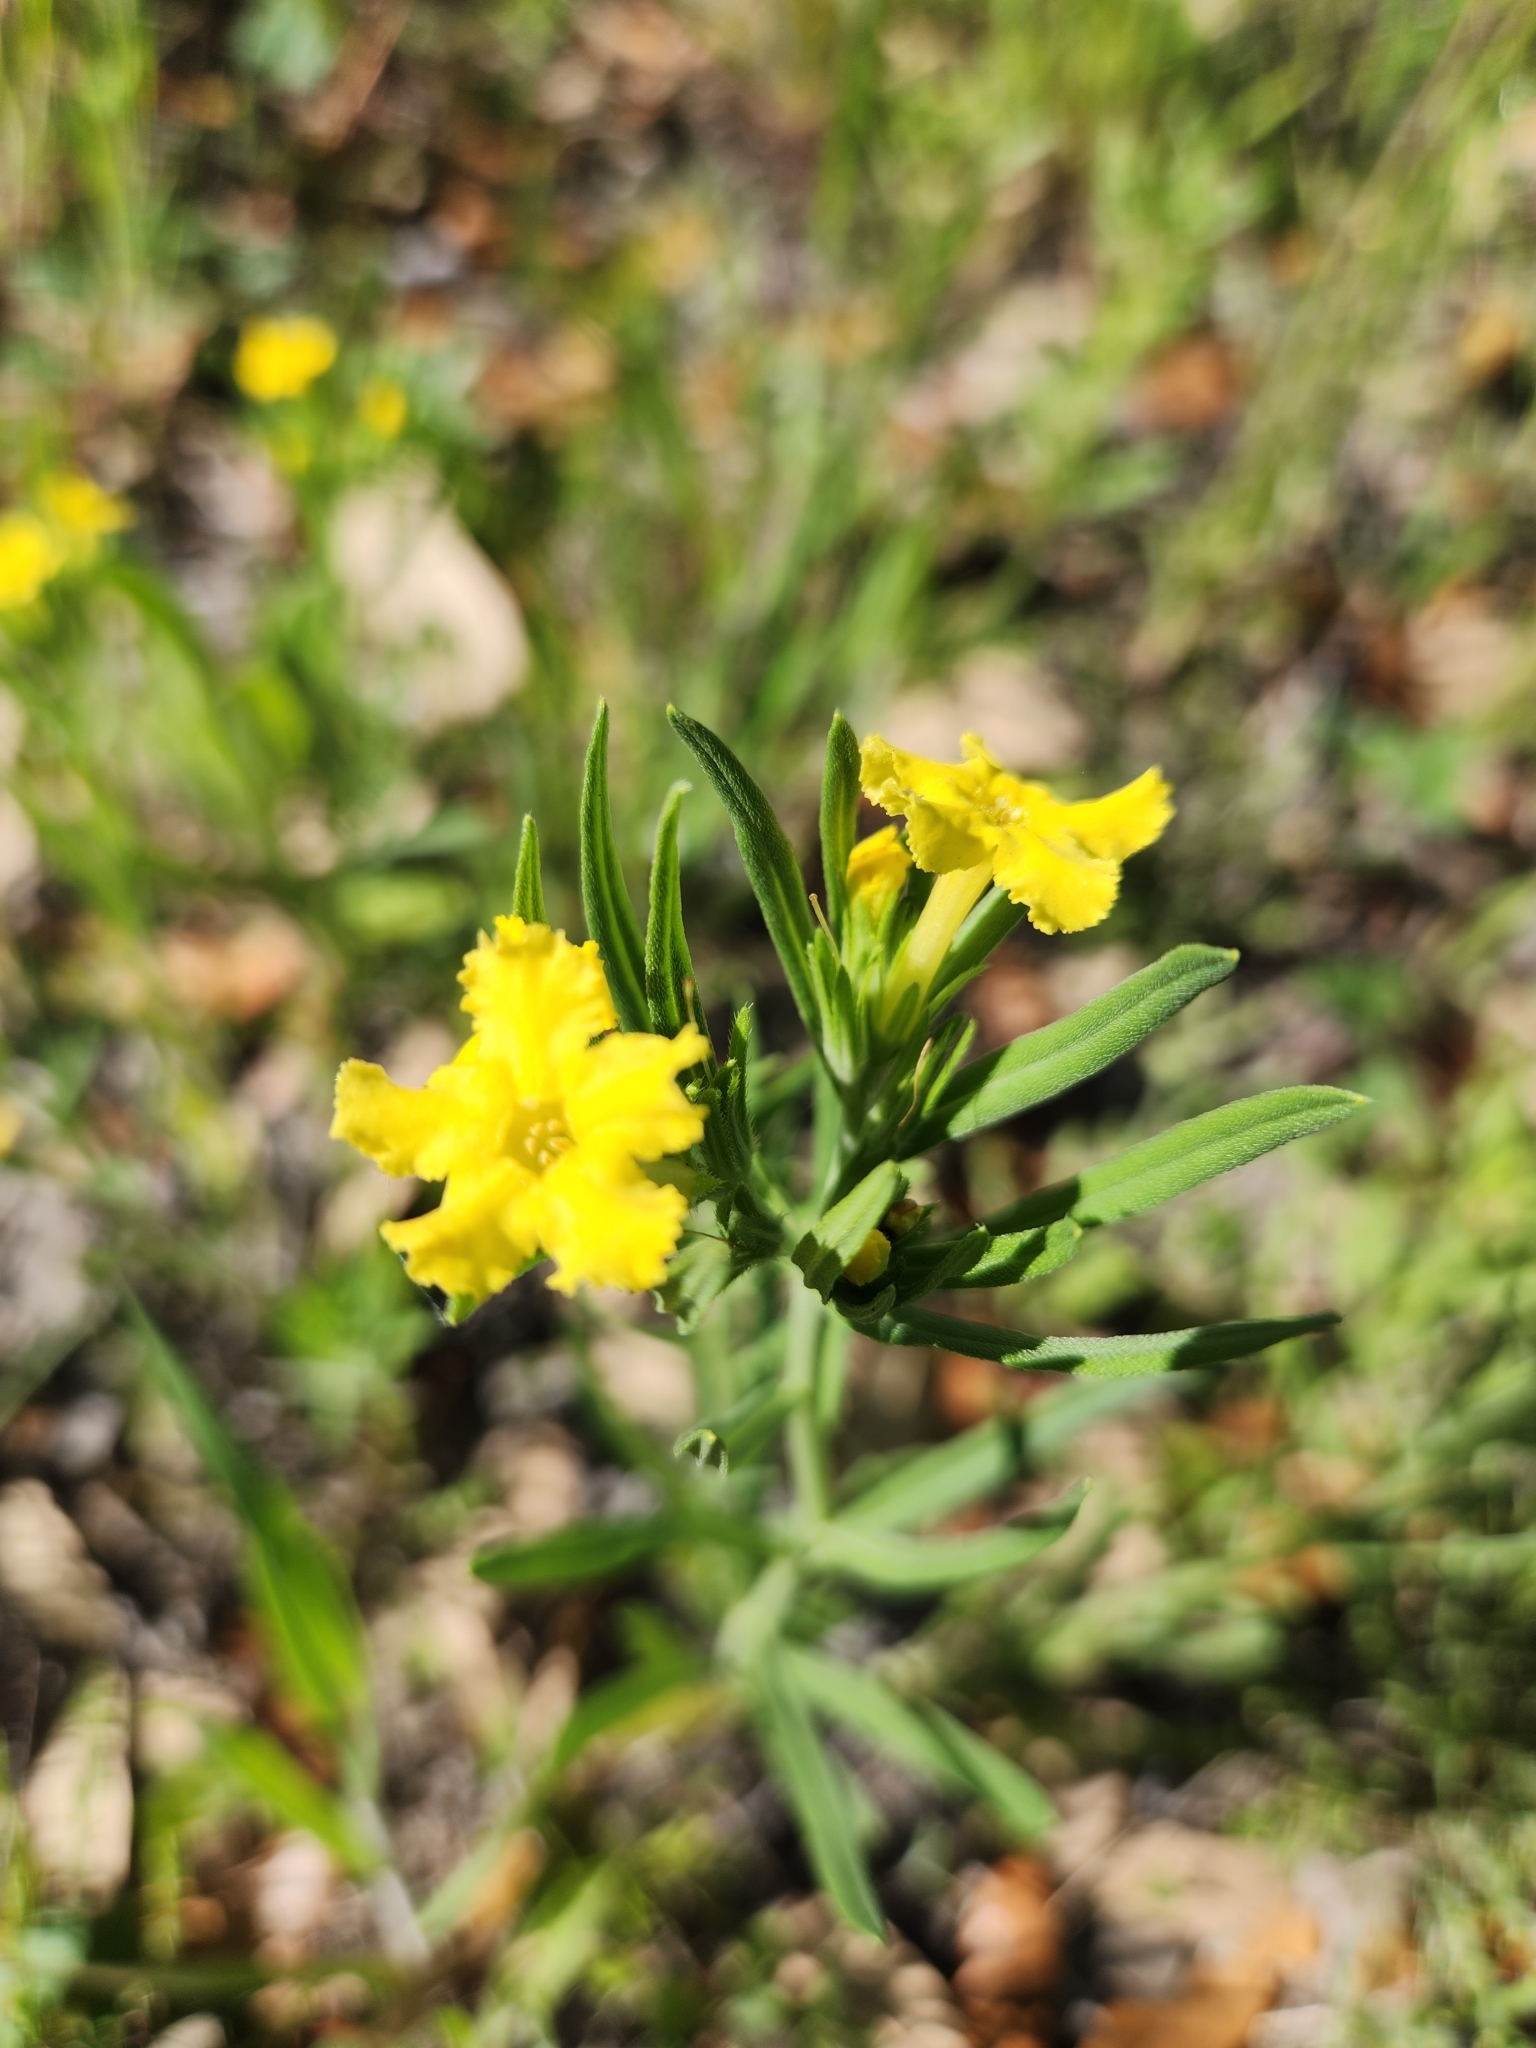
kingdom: Plantae
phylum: Tracheophyta
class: Magnoliopsida
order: Boraginales
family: Boraginaceae
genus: Lithospermum
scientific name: Lithospermum incisum
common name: Fringed gromwell
